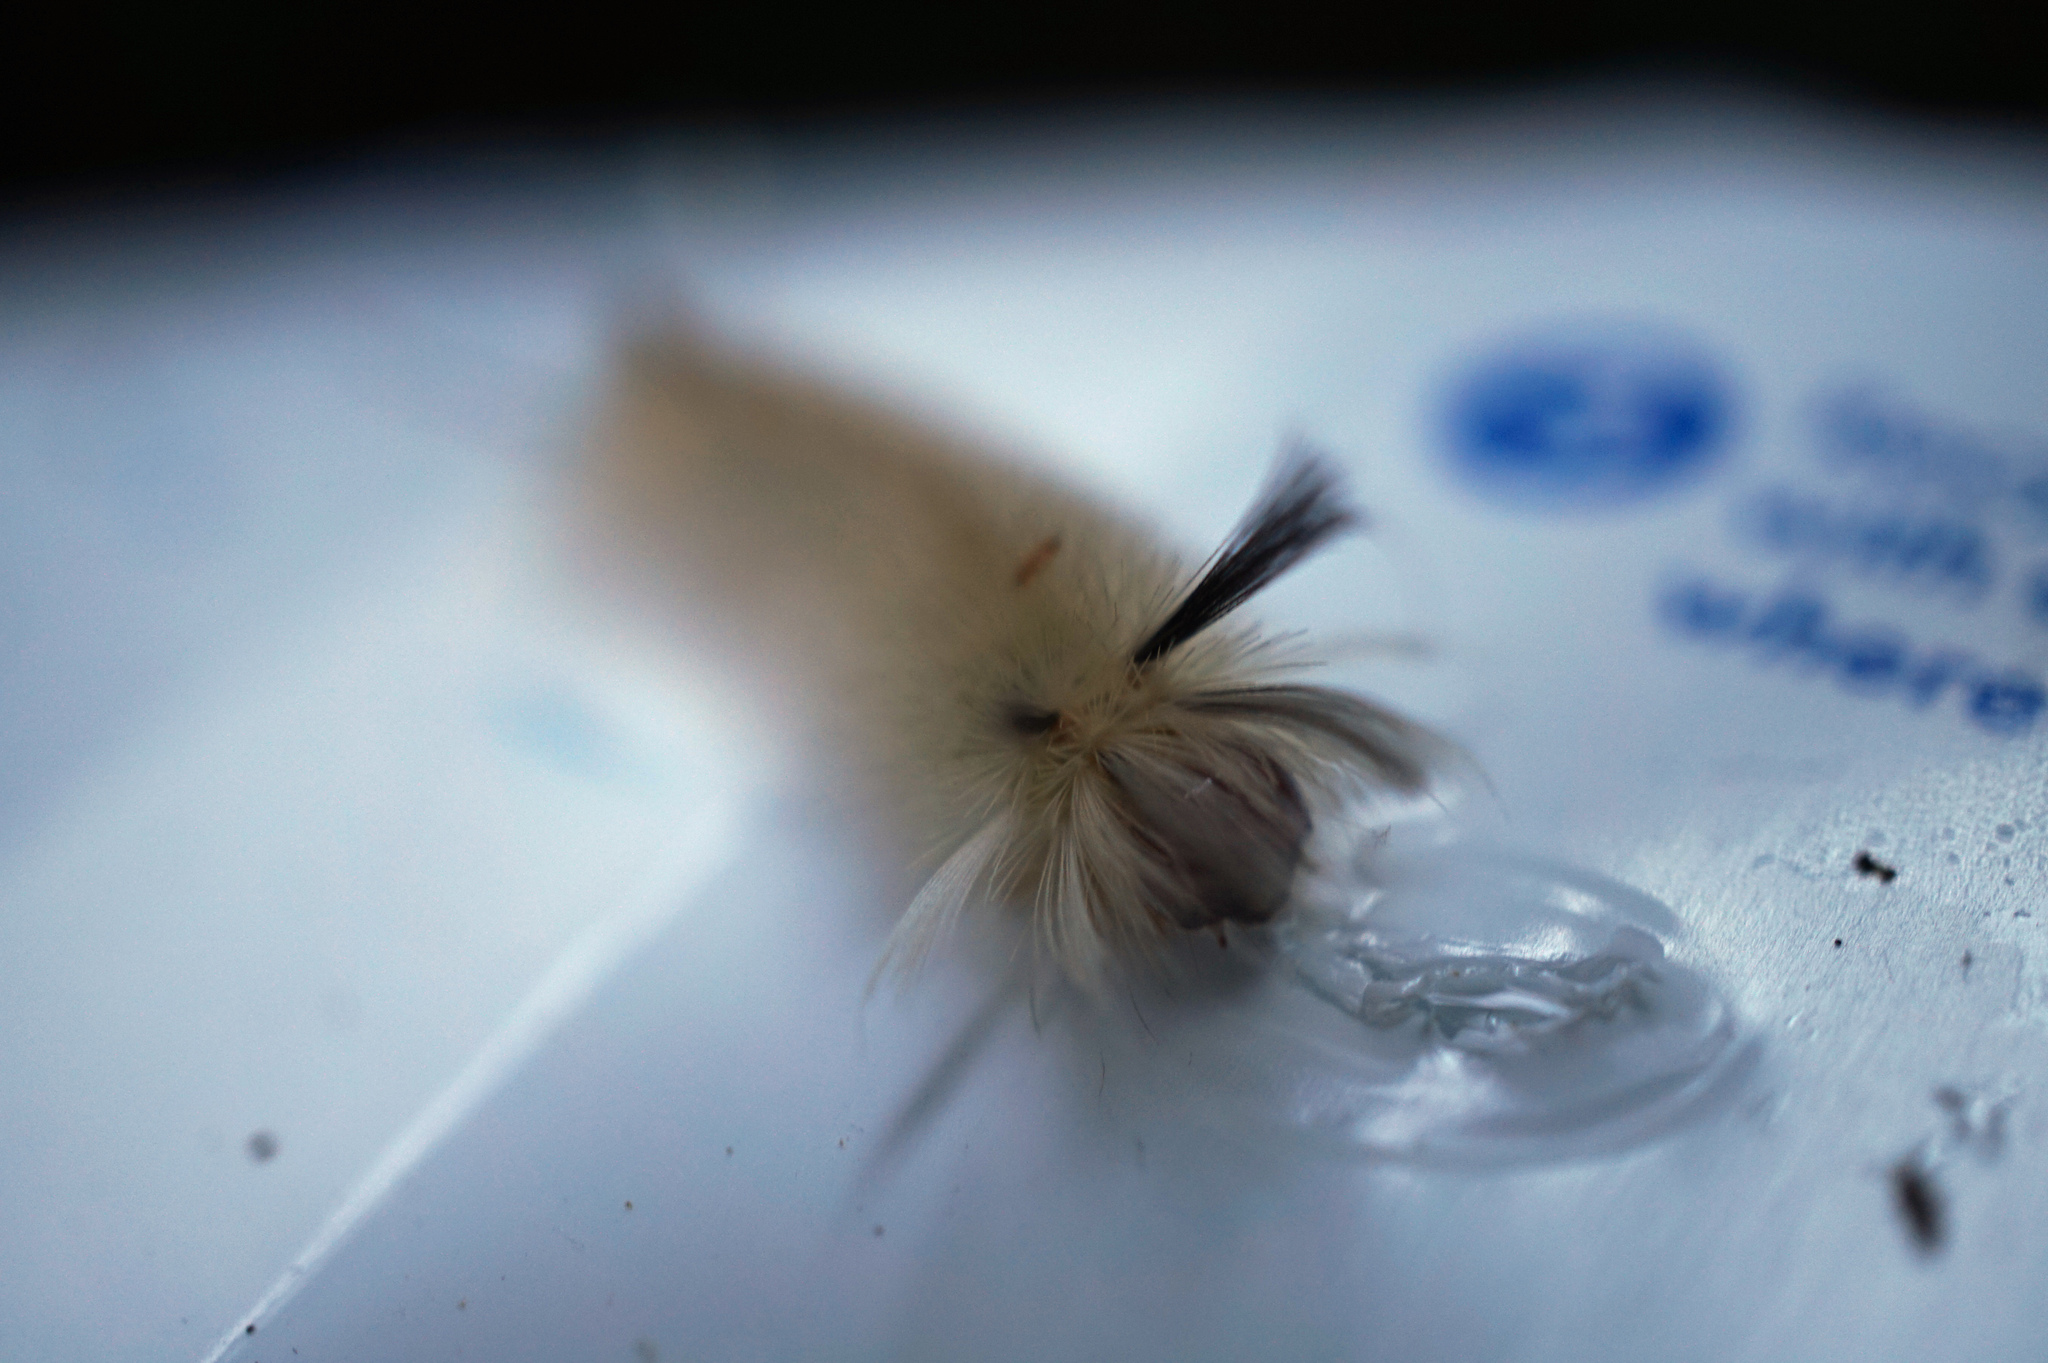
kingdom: Animalia
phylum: Arthropoda
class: Insecta
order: Lepidoptera
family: Erebidae
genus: Halysidota
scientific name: Halysidota tessellaris
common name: Banded tussock moth
